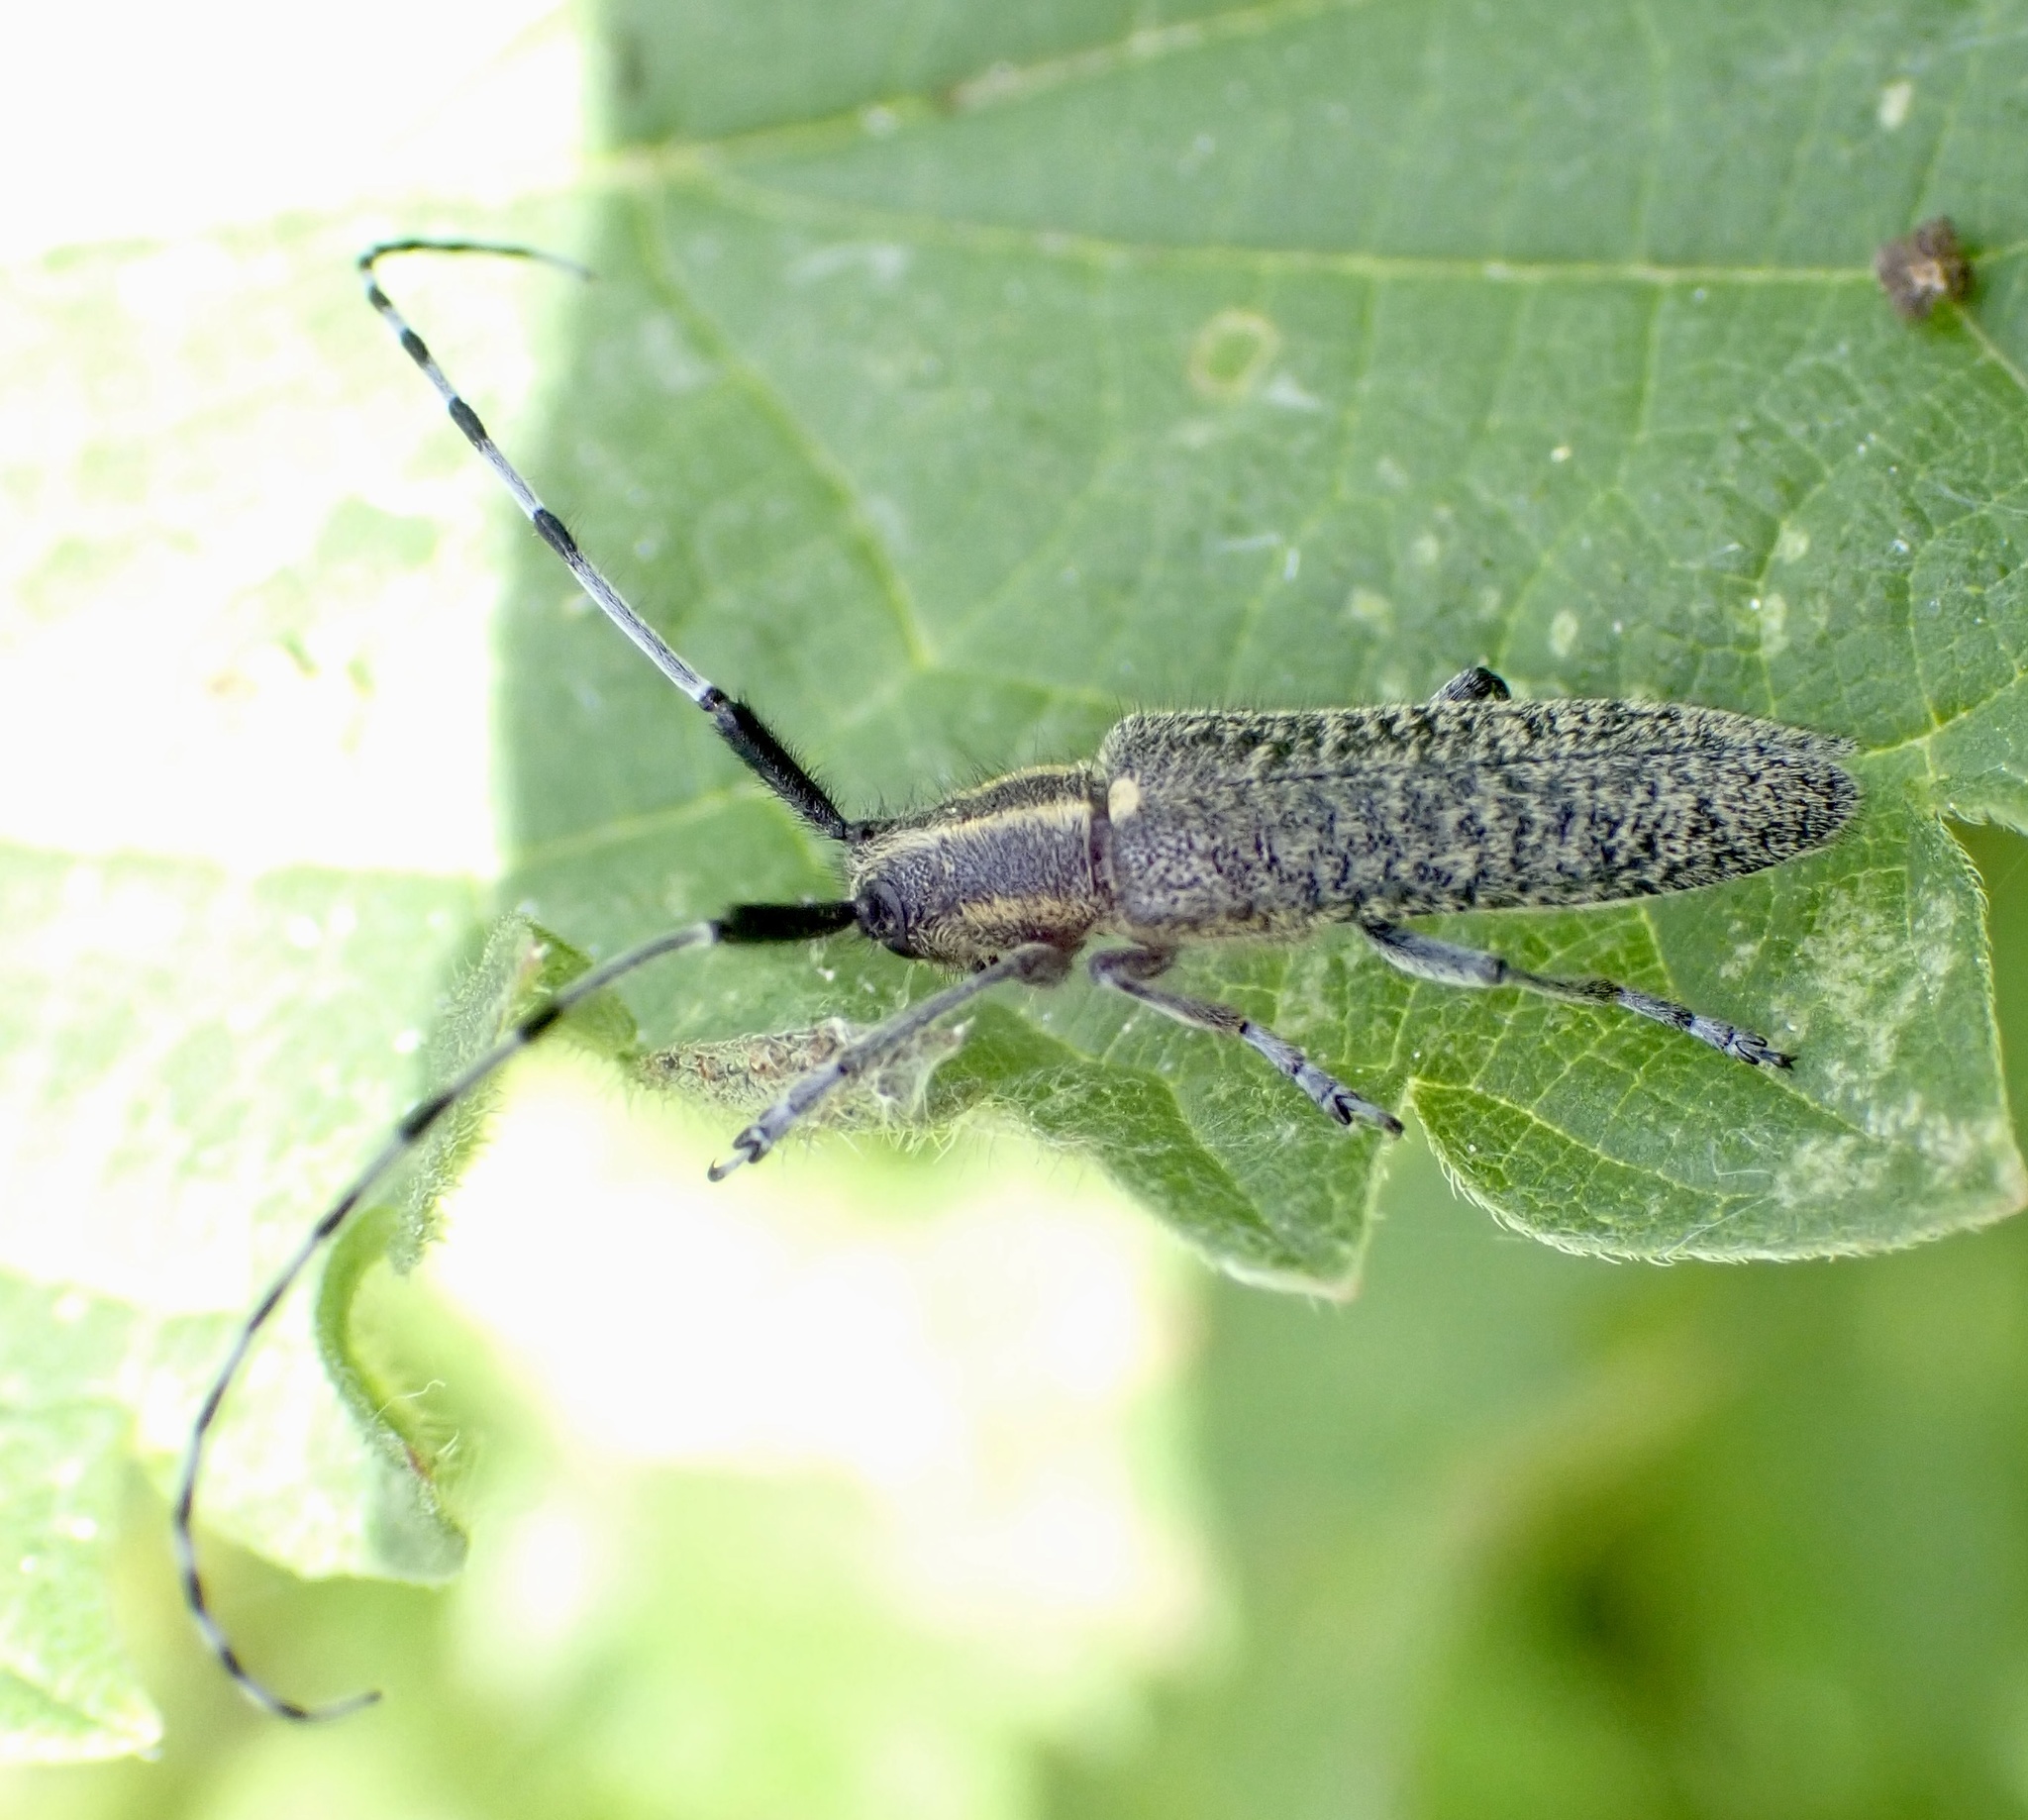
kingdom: Animalia
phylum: Arthropoda
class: Insecta
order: Coleoptera
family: Cerambycidae
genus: Agapanthia
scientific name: Agapanthia villosoviridescens
